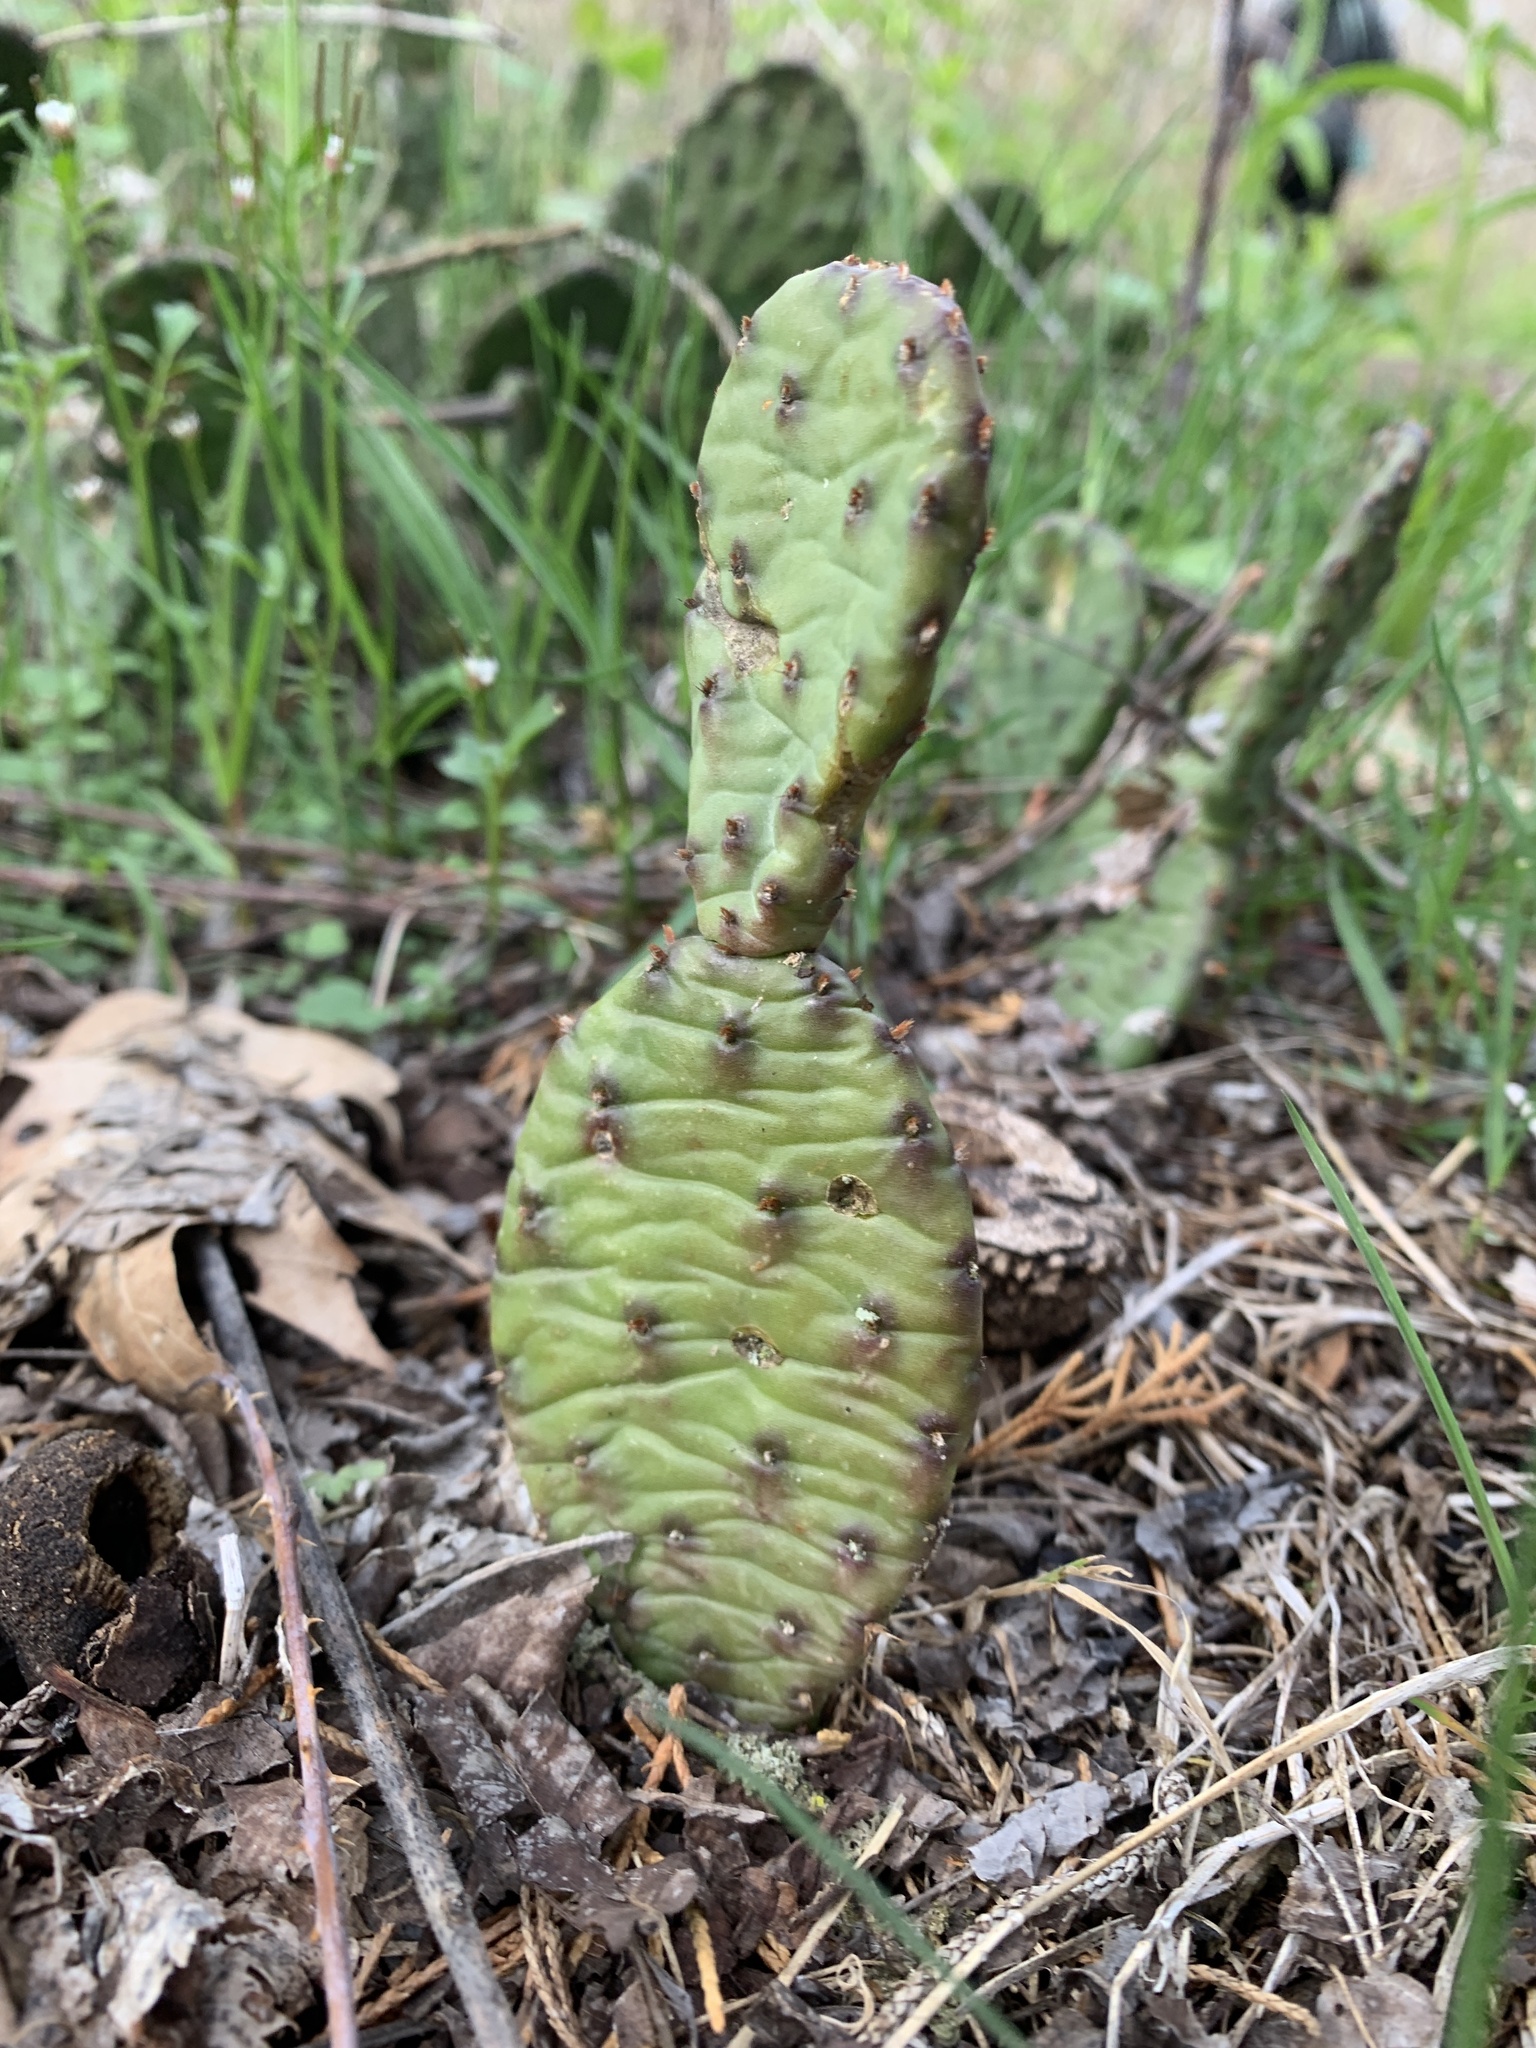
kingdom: Plantae
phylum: Tracheophyta
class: Magnoliopsida
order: Caryophyllales
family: Cactaceae
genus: Opuntia
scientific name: Opuntia humifusa
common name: Eastern prickly-pear
